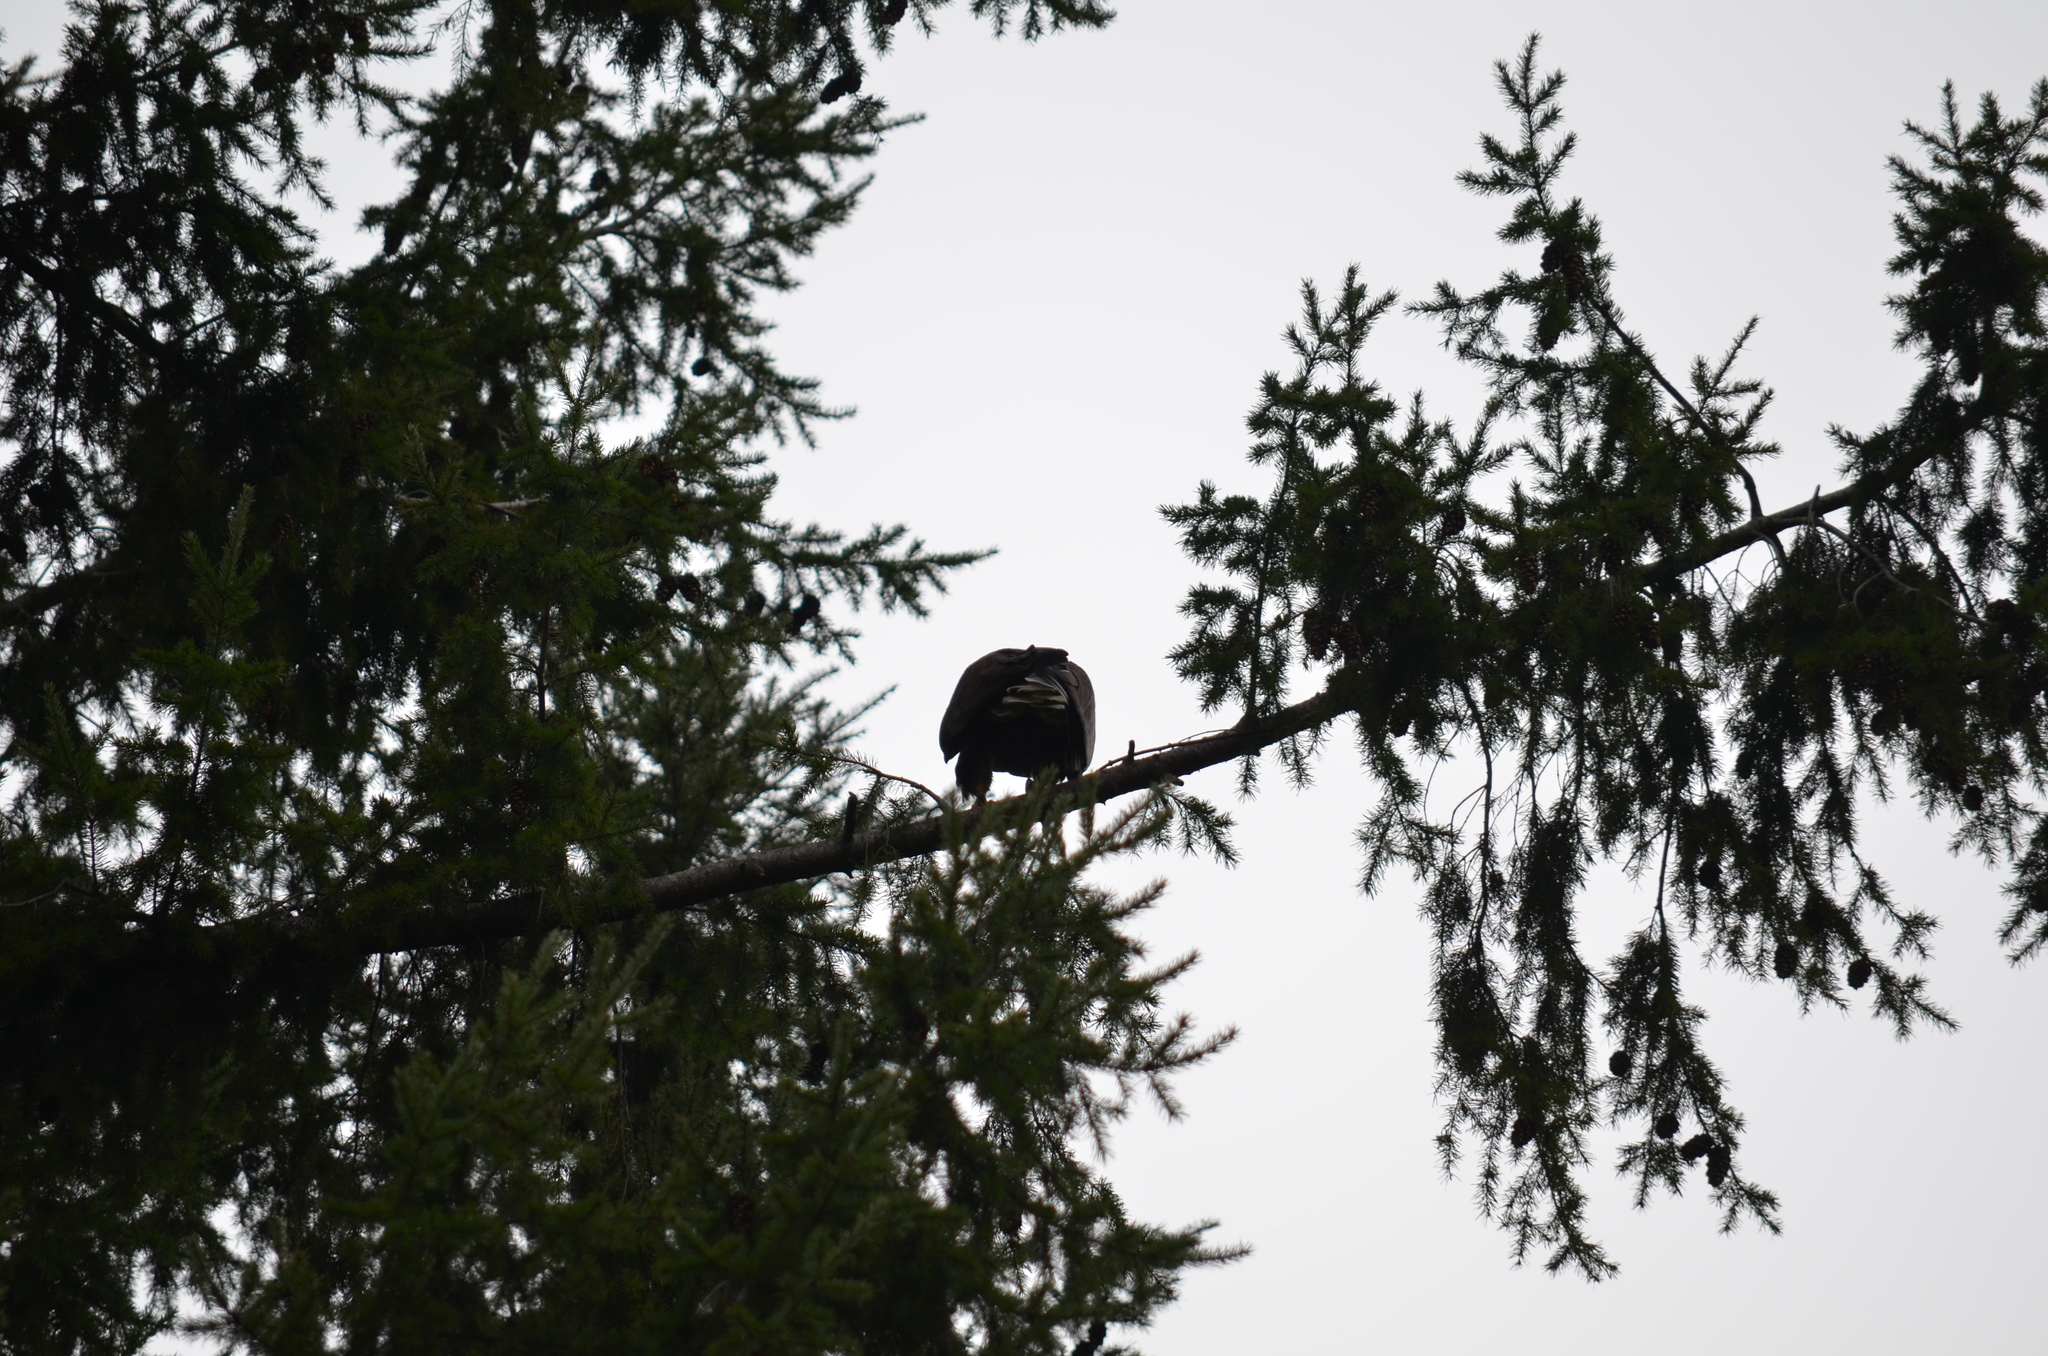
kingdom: Animalia
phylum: Chordata
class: Aves
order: Accipitriformes
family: Accipitridae
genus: Haliaeetus
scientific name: Haliaeetus leucocephalus
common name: Bald eagle
